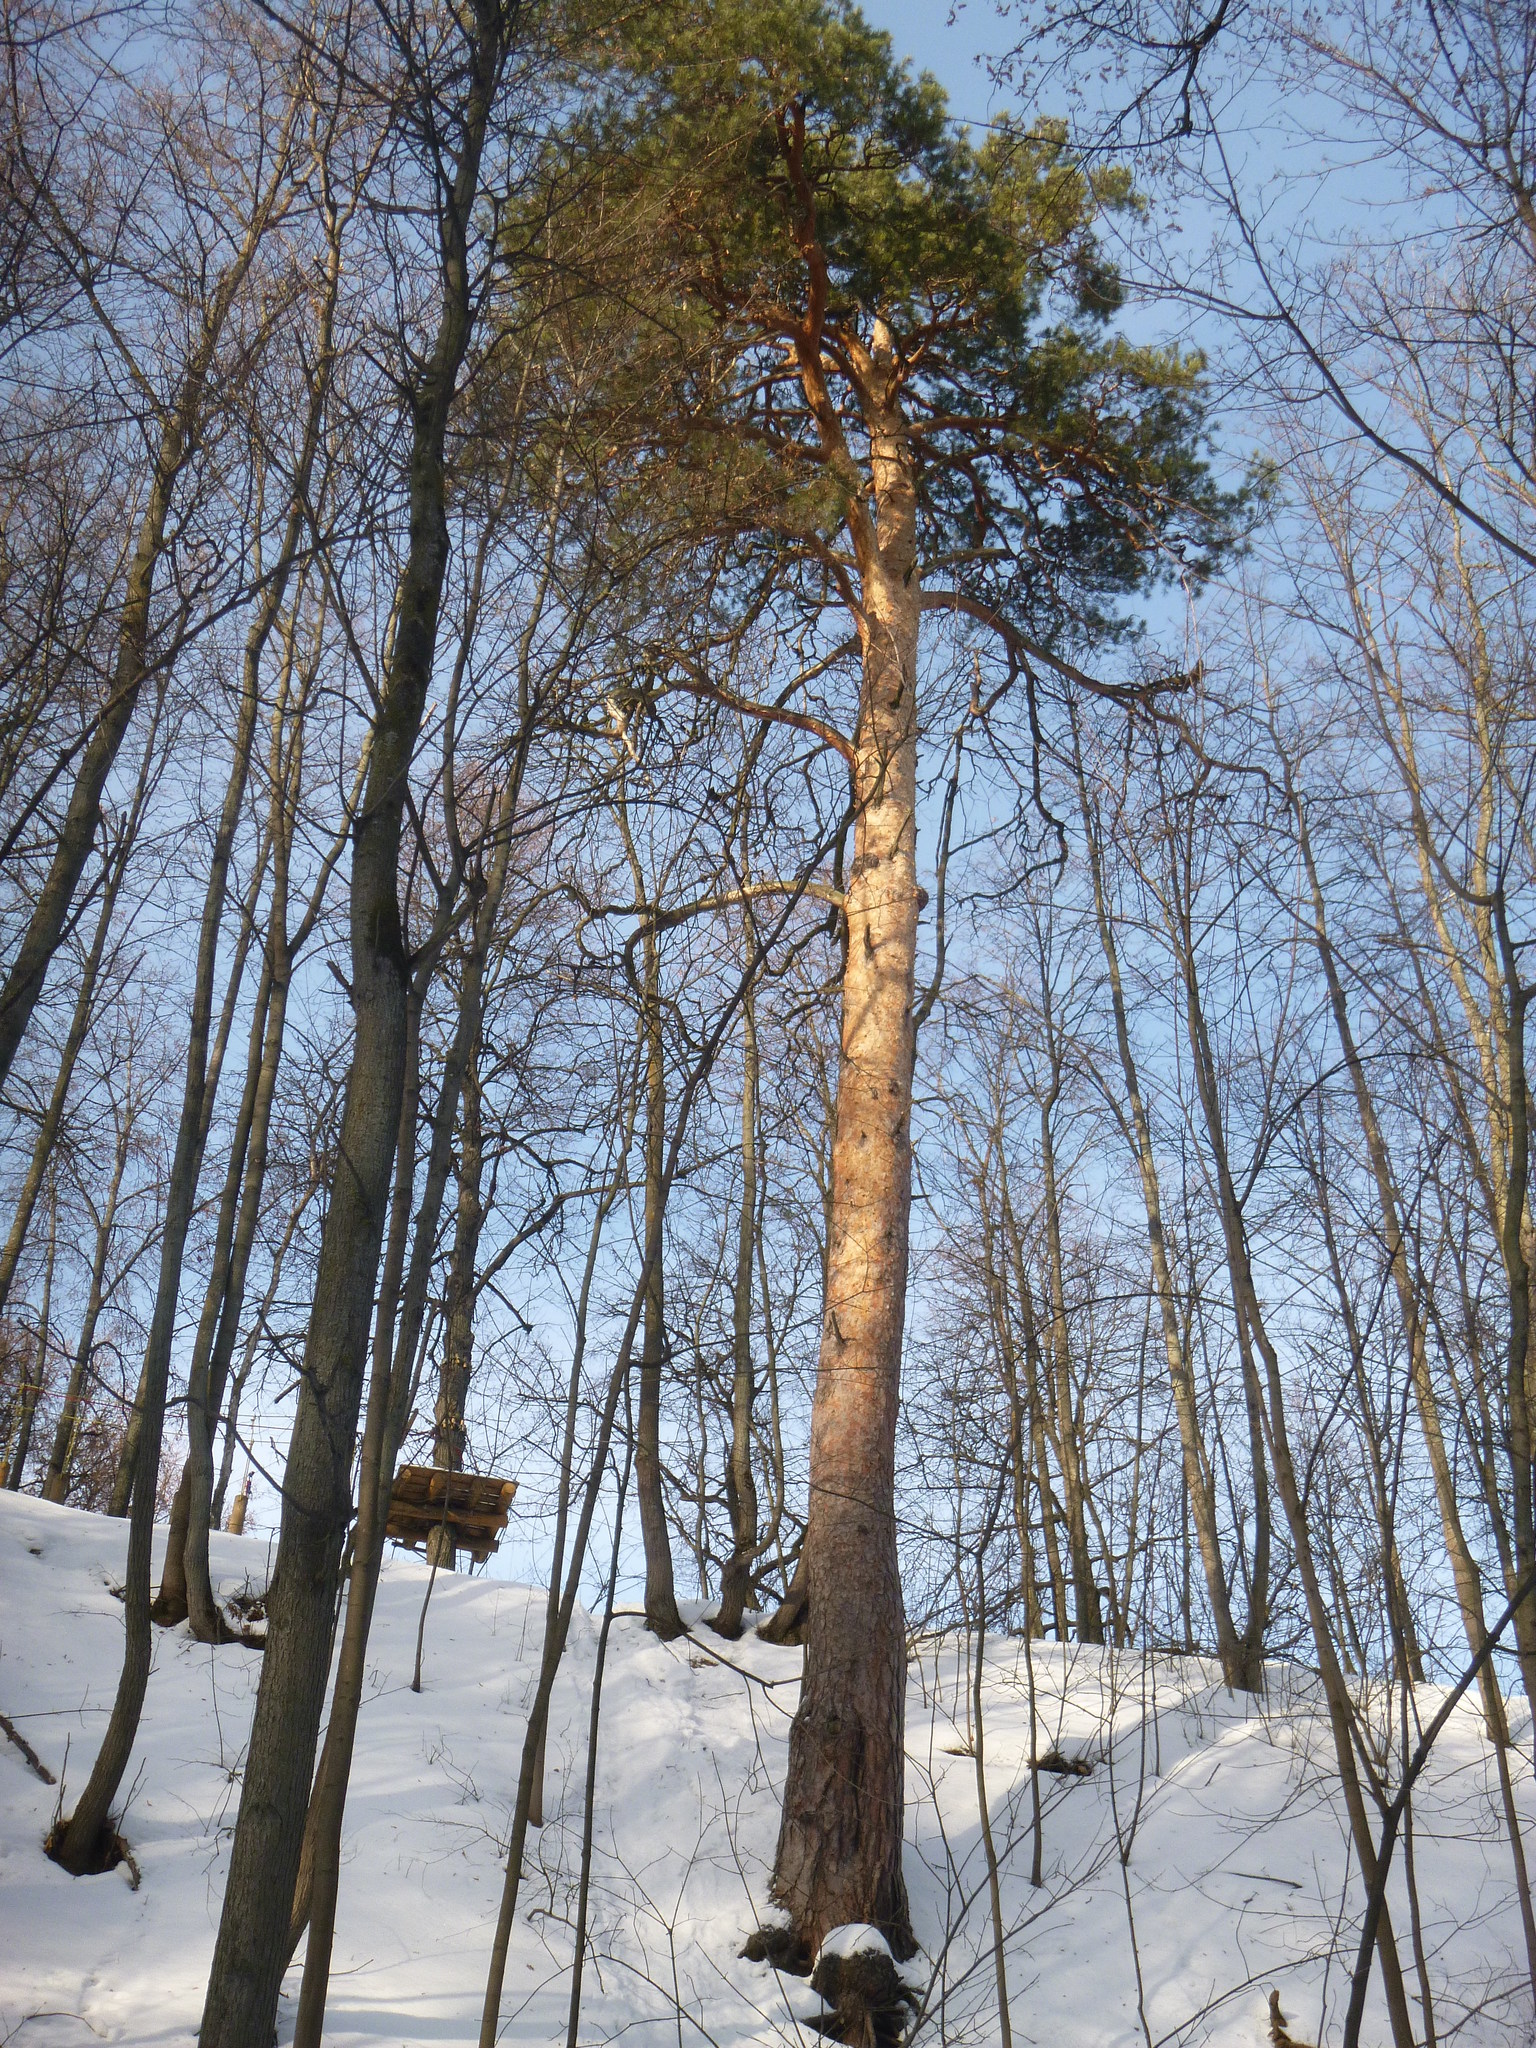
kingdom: Plantae
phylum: Tracheophyta
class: Pinopsida
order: Pinales
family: Pinaceae
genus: Pinus
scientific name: Pinus sylvestris
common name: Scots pine
